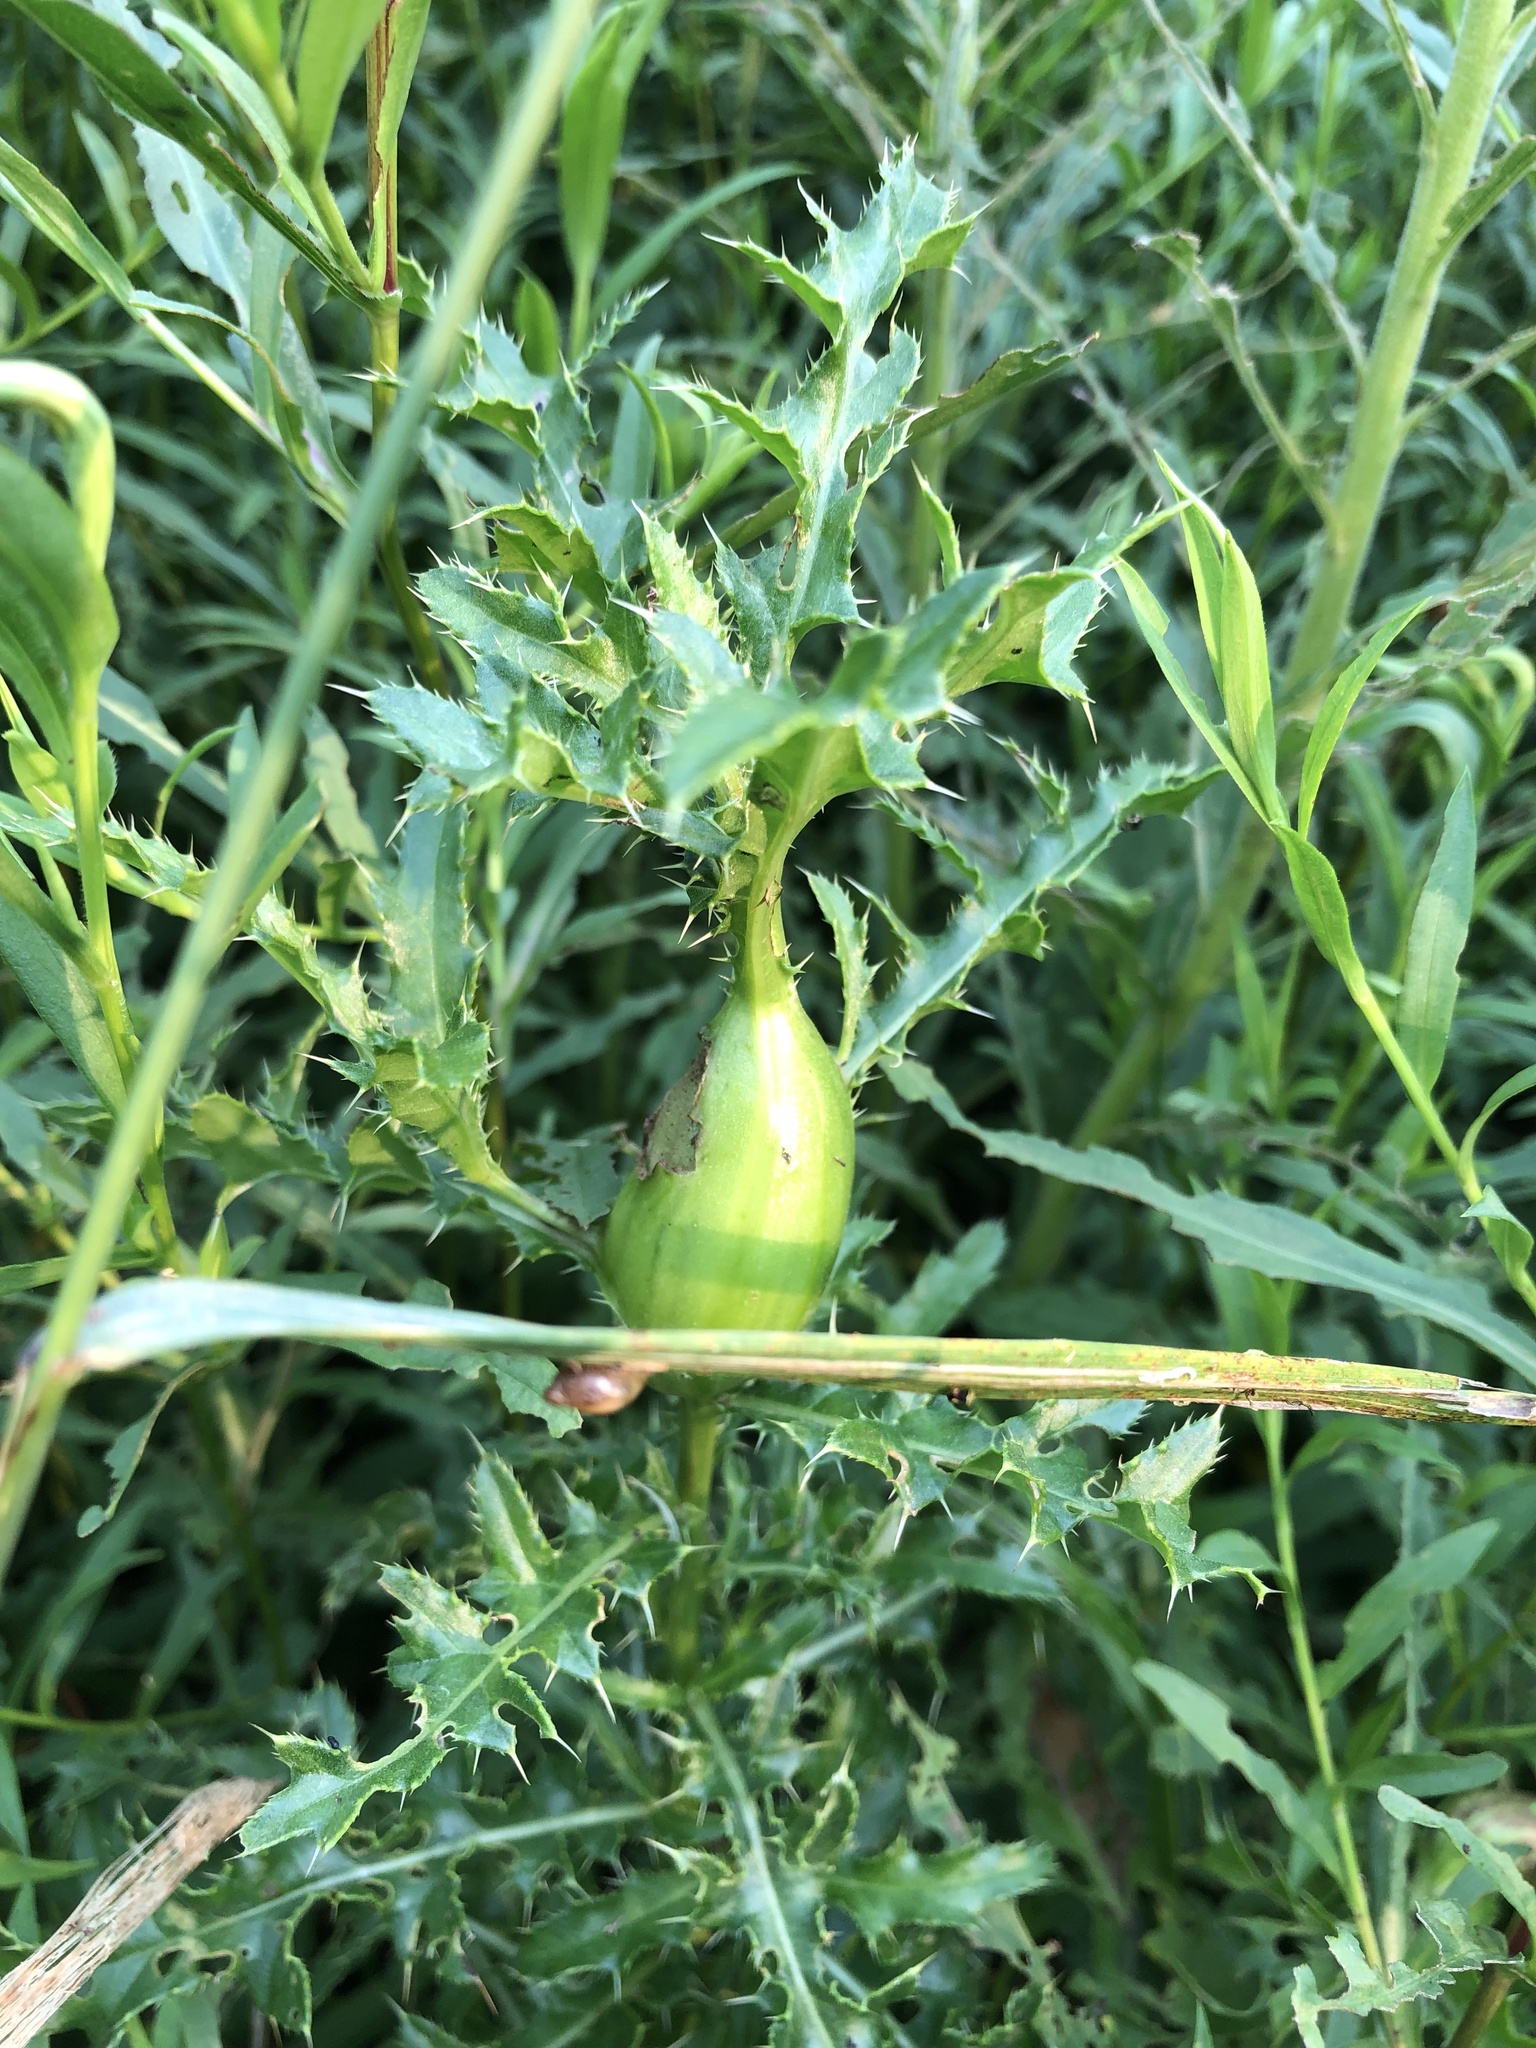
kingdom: Animalia
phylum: Arthropoda
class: Insecta
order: Diptera
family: Tephritidae
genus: Urophora
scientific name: Urophora cardui
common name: Fruit fly
